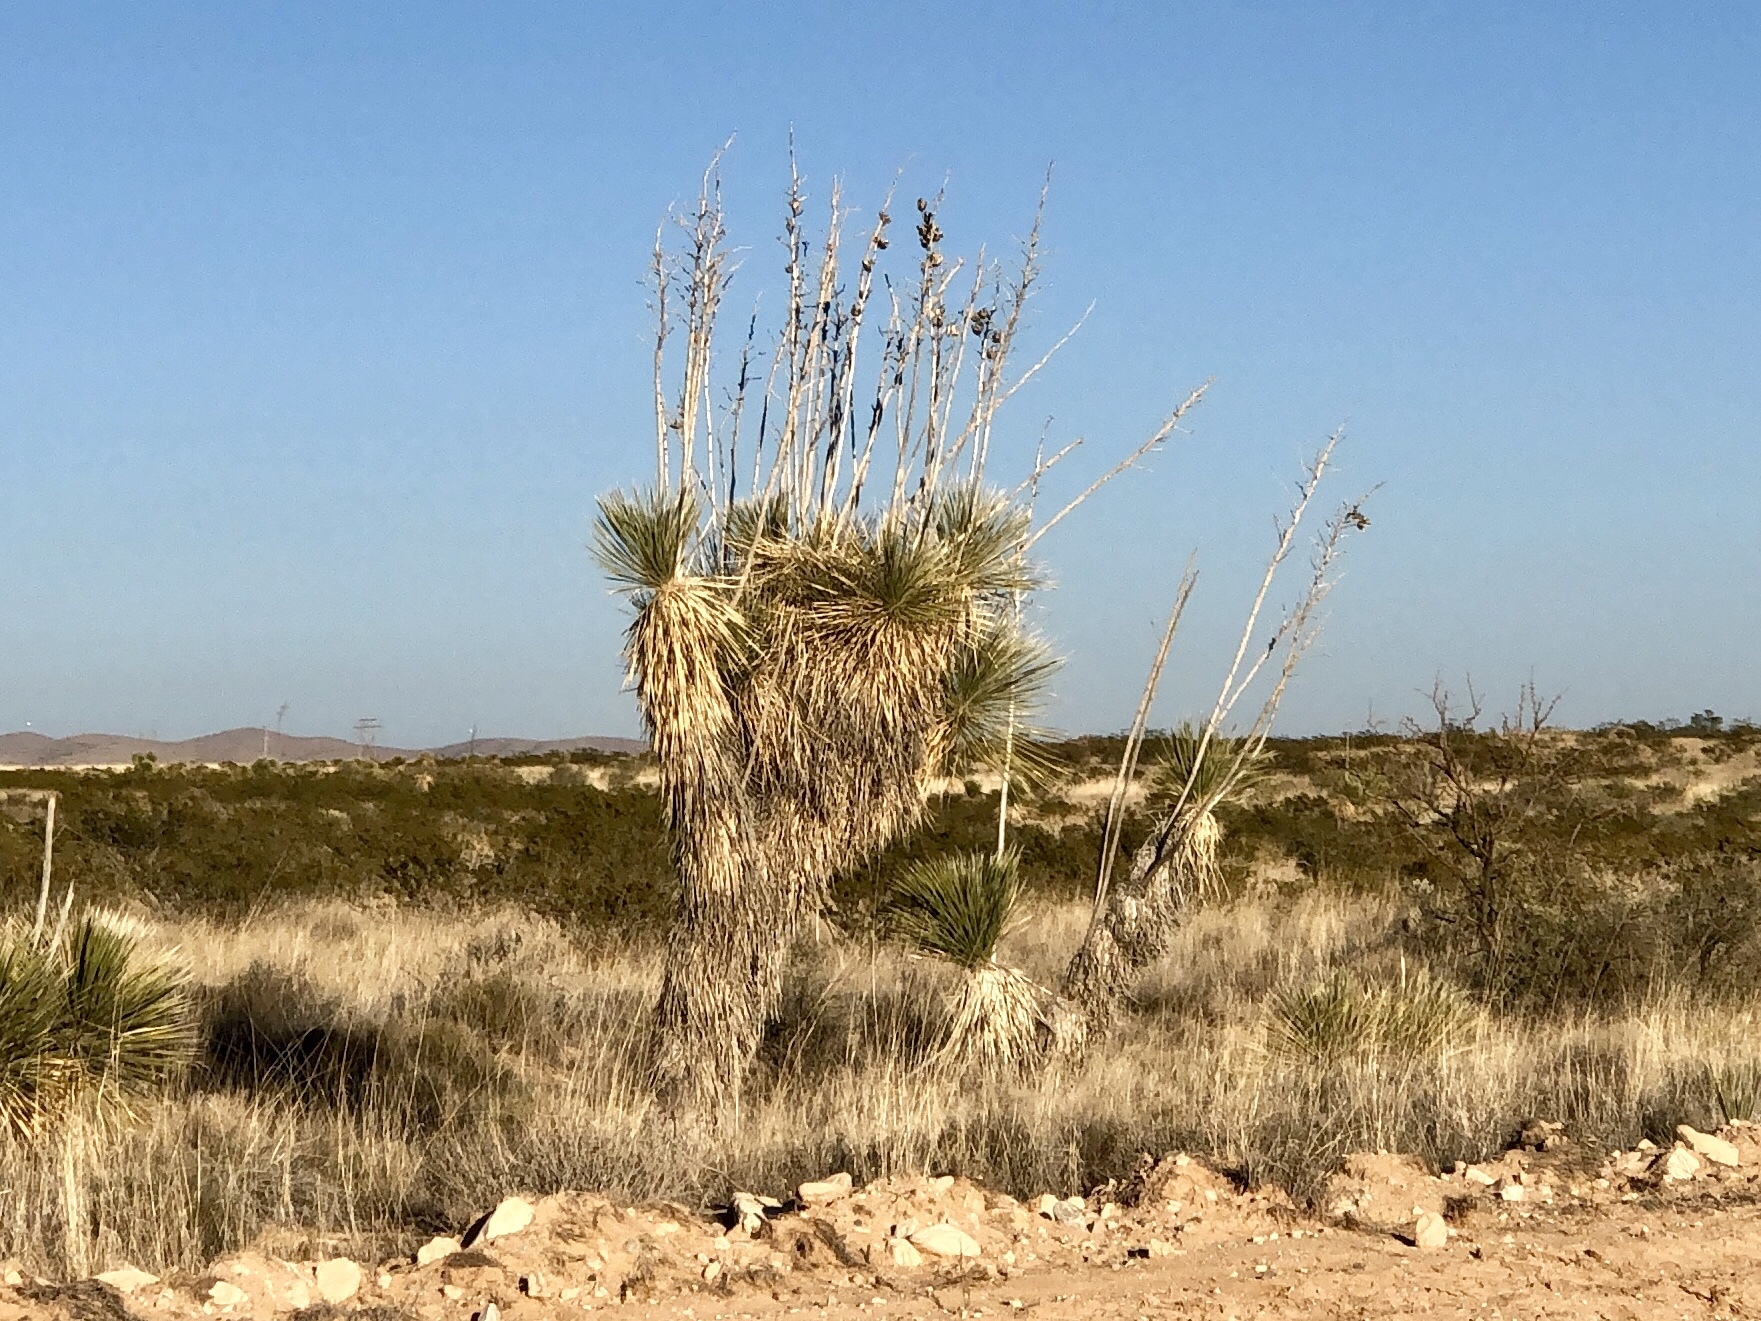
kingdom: Plantae
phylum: Tracheophyta
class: Liliopsida
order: Asparagales
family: Asparagaceae
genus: Yucca
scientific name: Yucca elata
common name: Palmella
